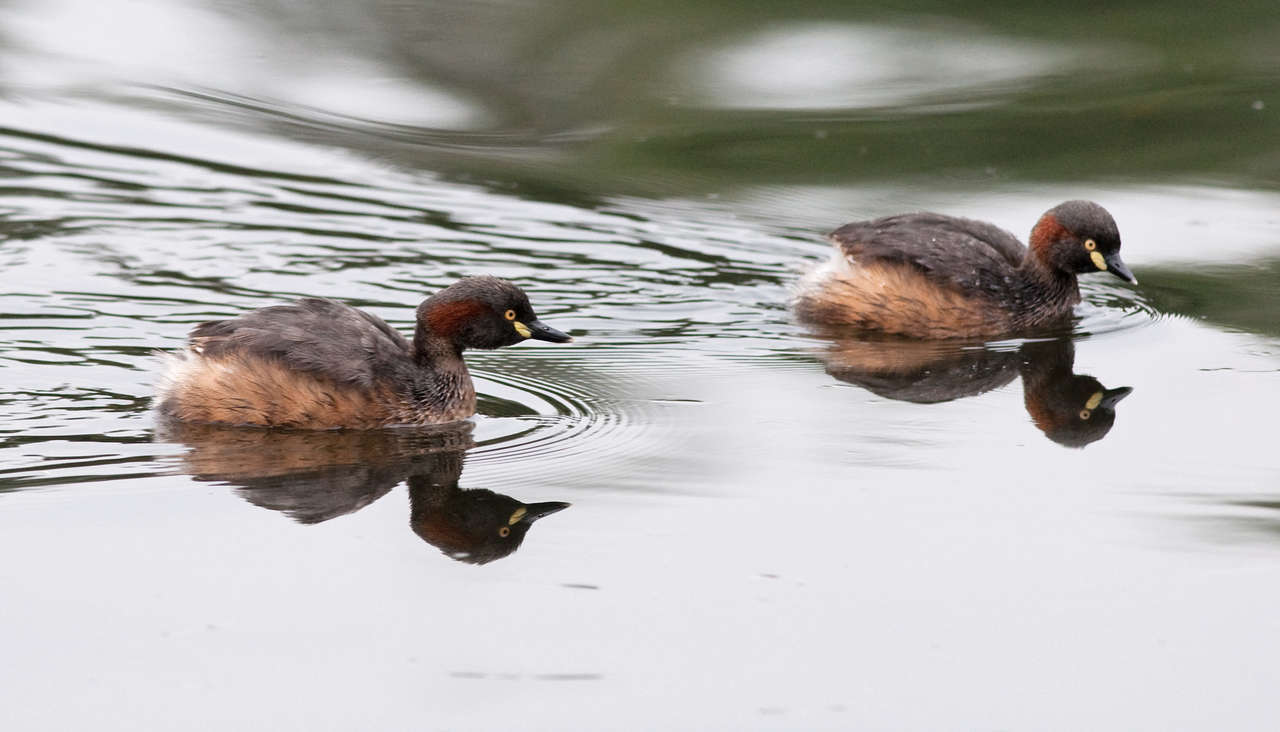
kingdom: Animalia
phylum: Chordata
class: Aves
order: Podicipediformes
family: Podicipedidae
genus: Tachybaptus
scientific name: Tachybaptus novaehollandiae
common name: Australasian grebe
